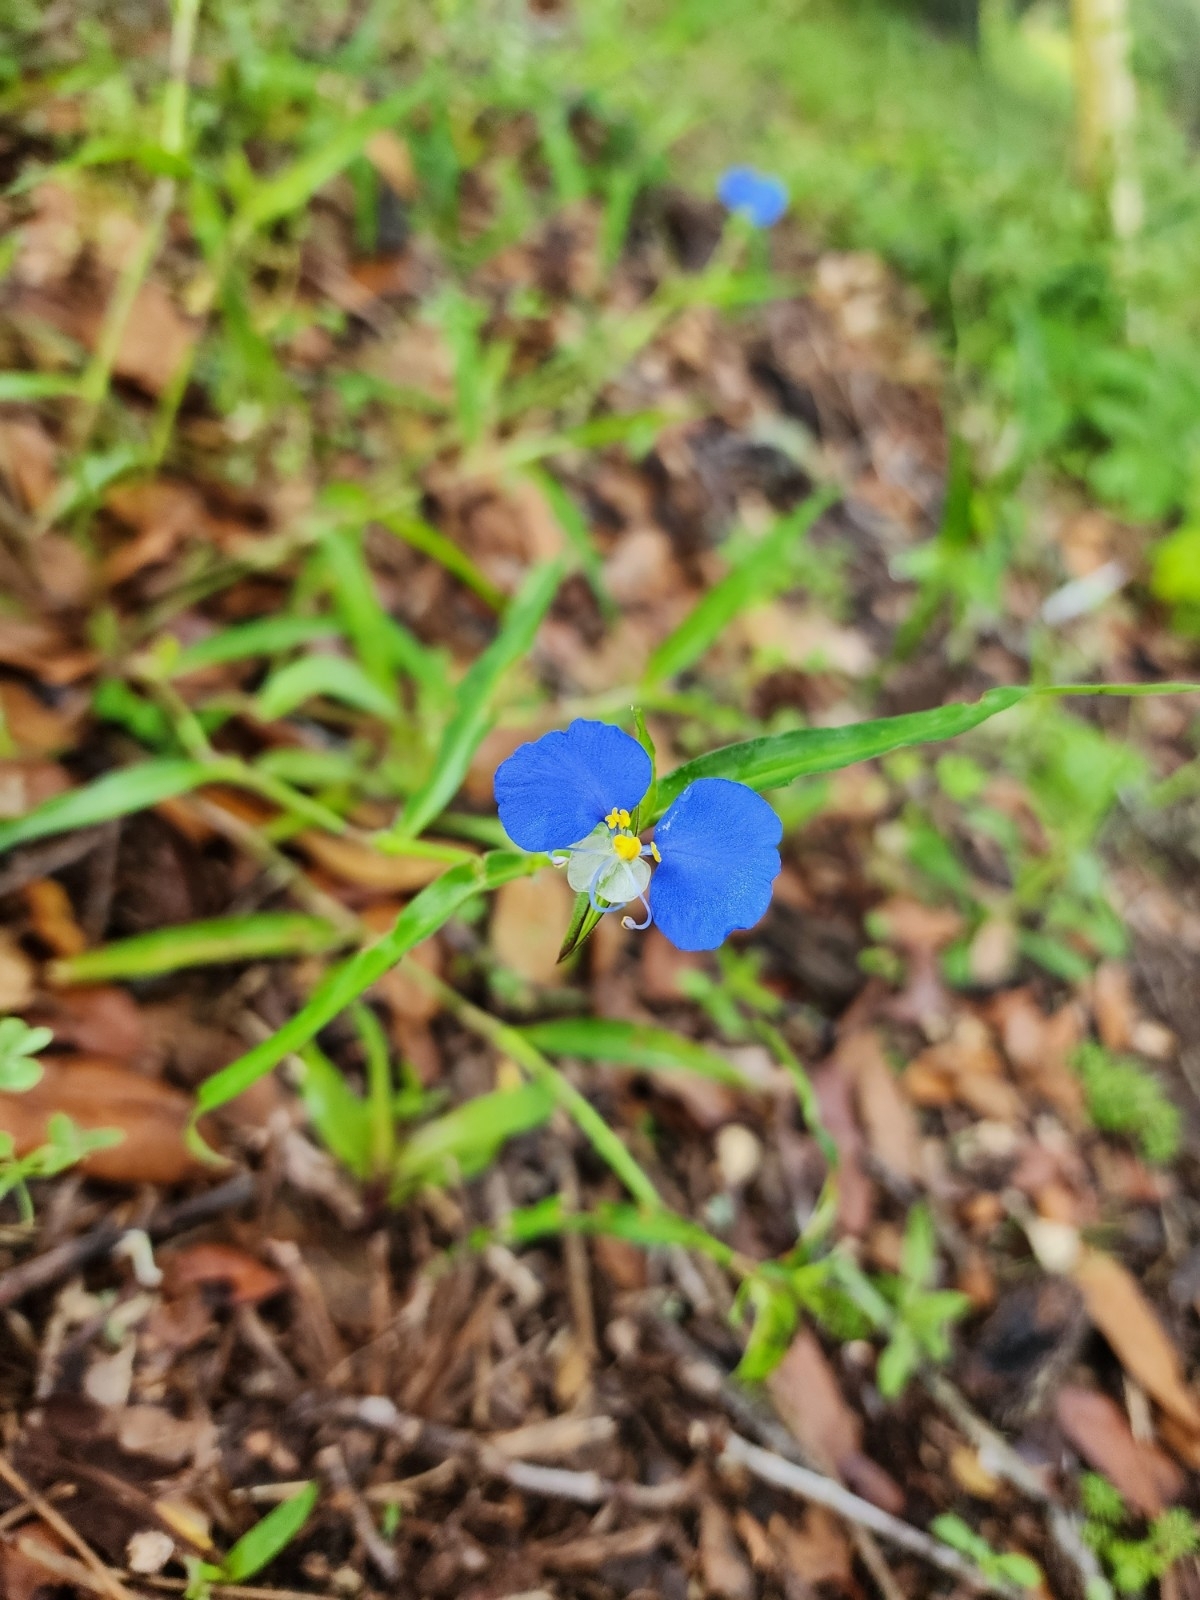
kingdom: Plantae
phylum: Tracheophyta
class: Liliopsida
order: Commelinales
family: Commelinaceae
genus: Commelina
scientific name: Commelina erecta
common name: Blousel blommetjie
